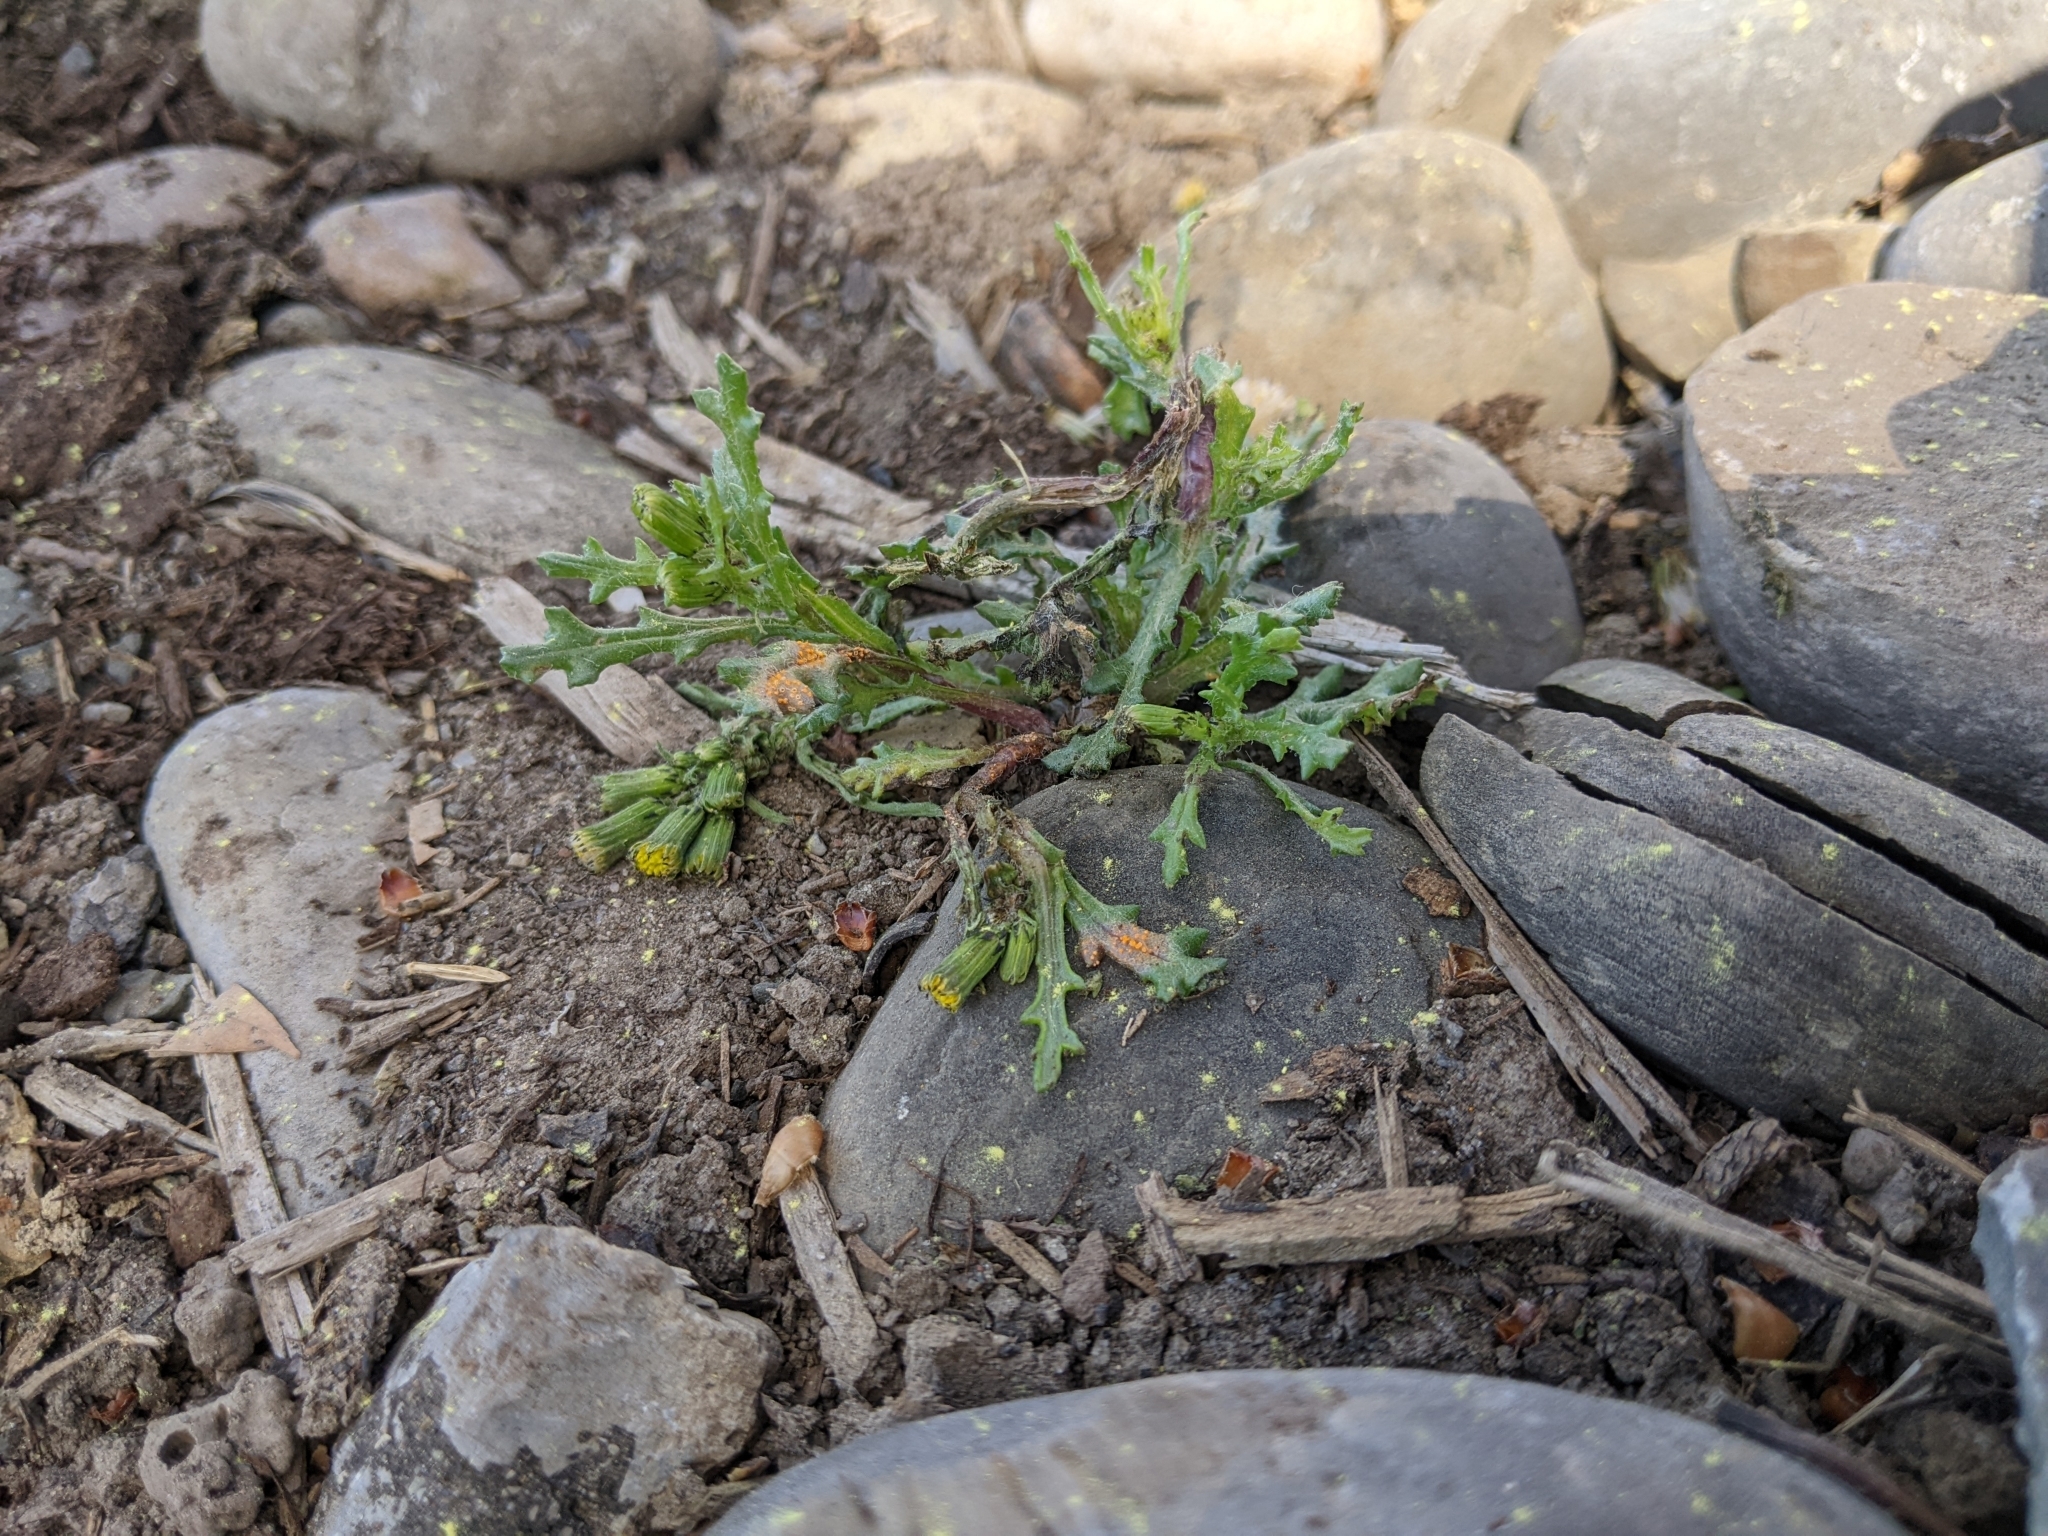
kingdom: Fungi
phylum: Basidiomycota
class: Pucciniomycetes
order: Pucciniales
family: Pucciniaceae
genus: Puccinia
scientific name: Puccinia lagenophorae
